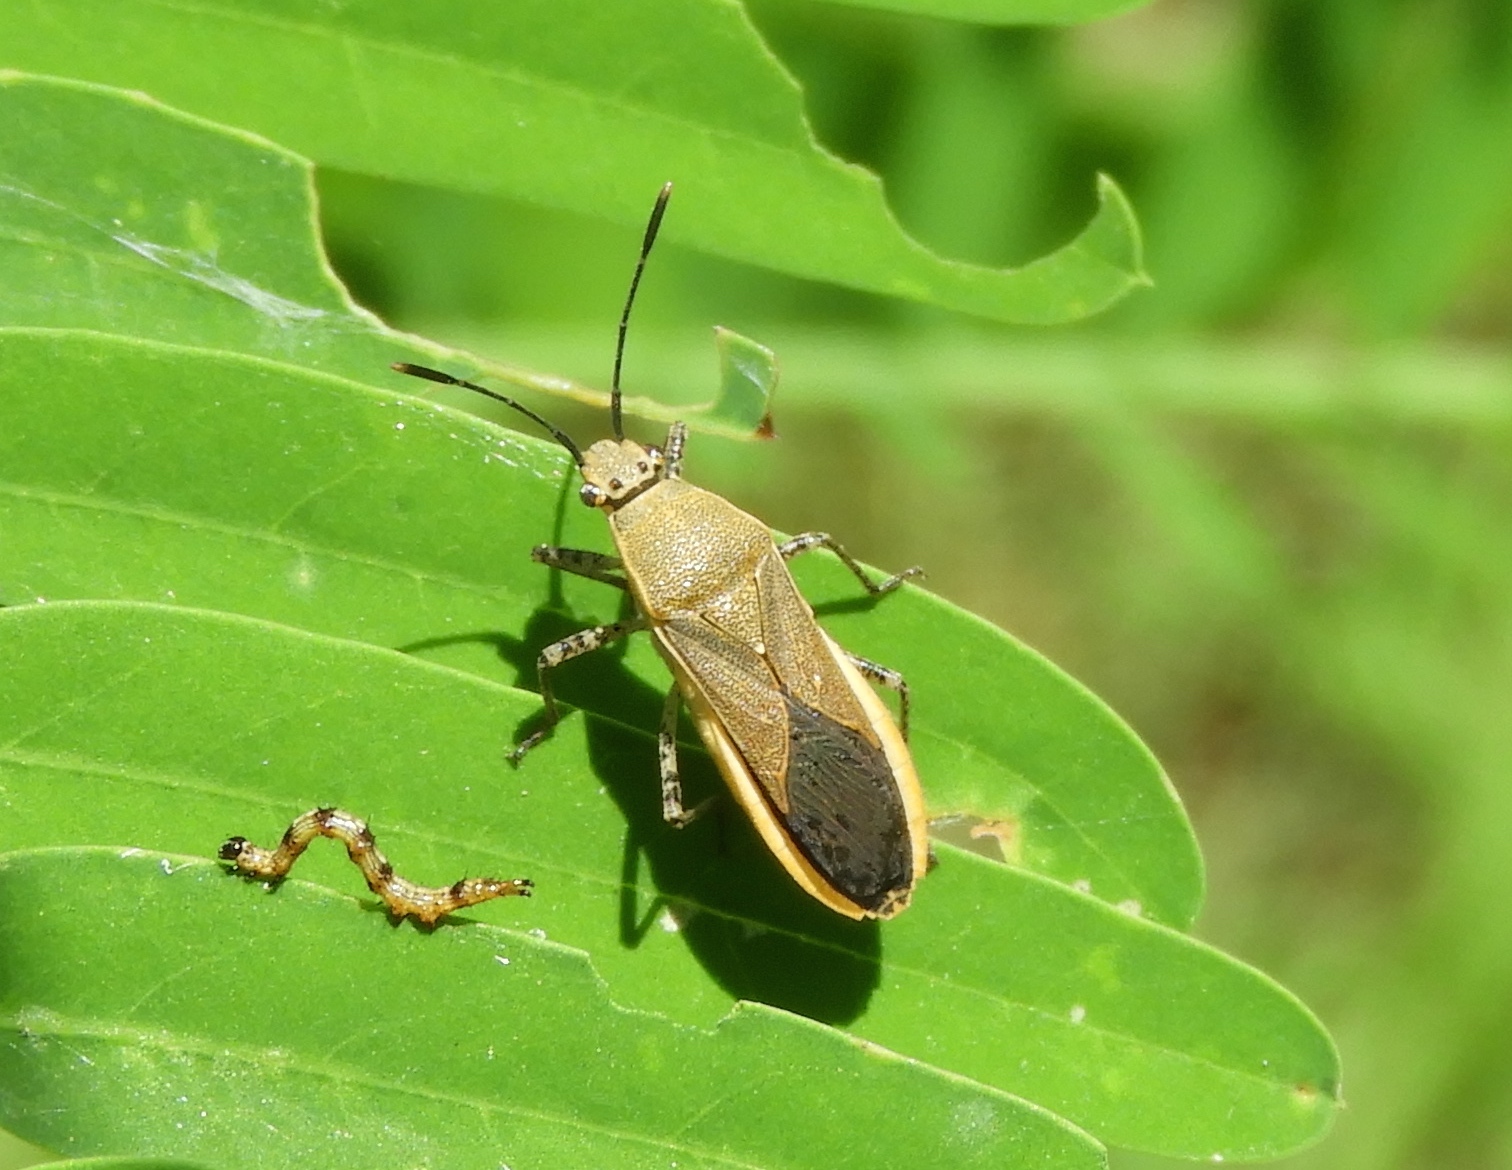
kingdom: Animalia
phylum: Arthropoda
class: Insecta
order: Lepidoptera
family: Erebidae
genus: Selenisa
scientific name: Selenisa
